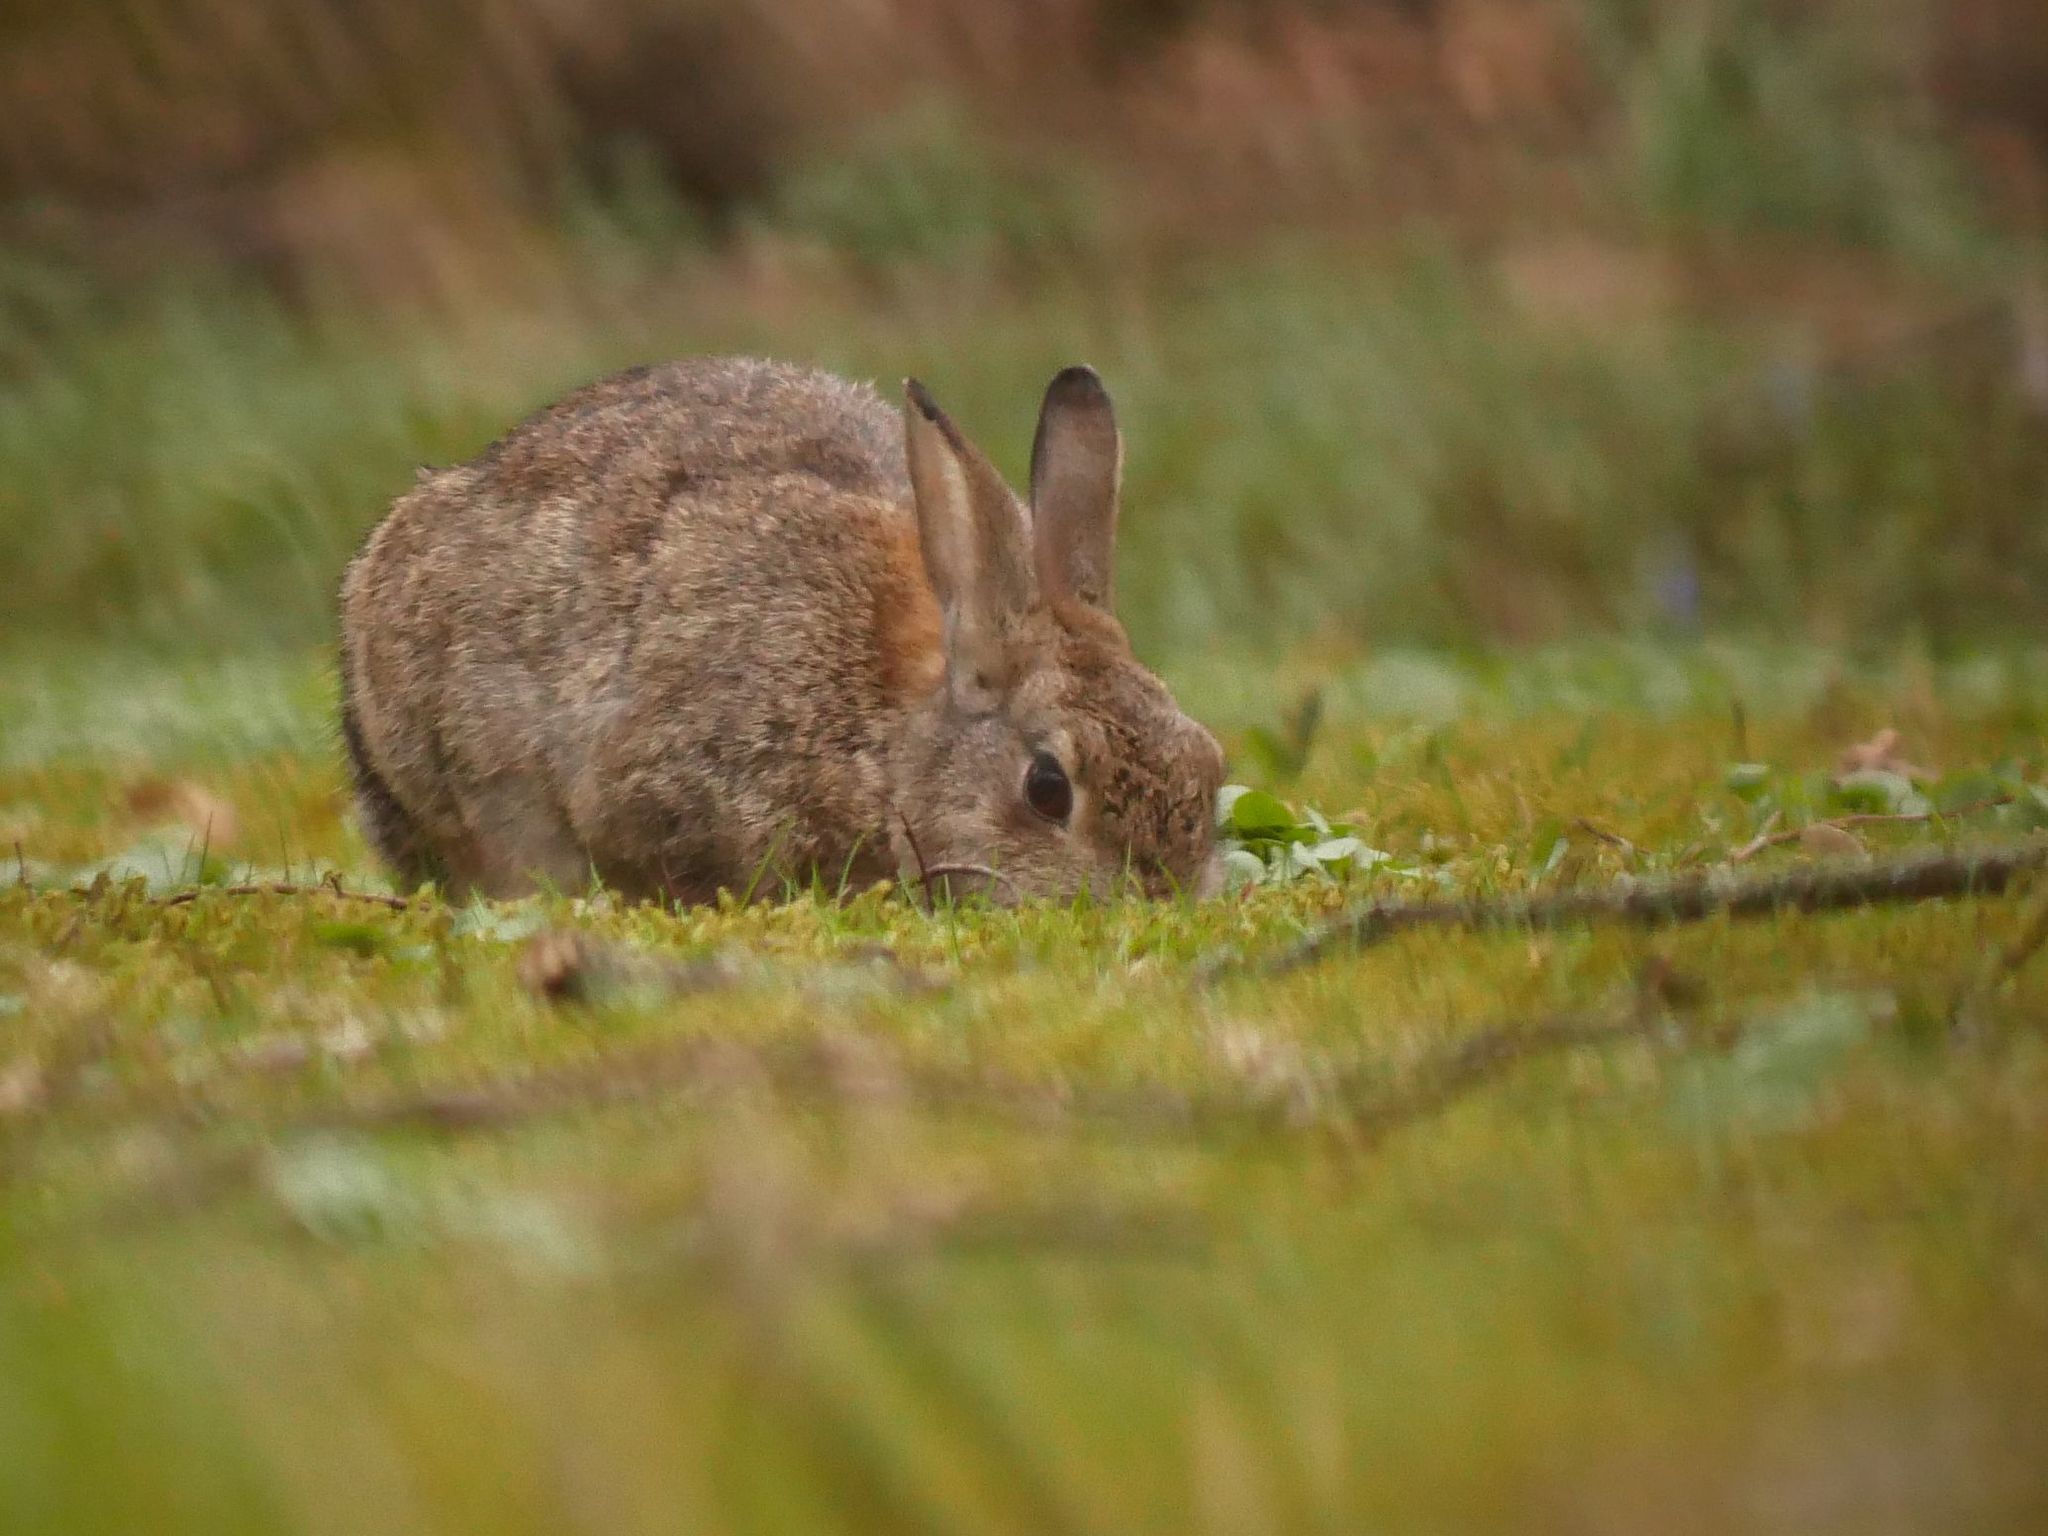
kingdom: Animalia
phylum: Chordata
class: Mammalia
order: Lagomorpha
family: Leporidae
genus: Oryctolagus
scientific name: Oryctolagus cuniculus
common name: European rabbit
